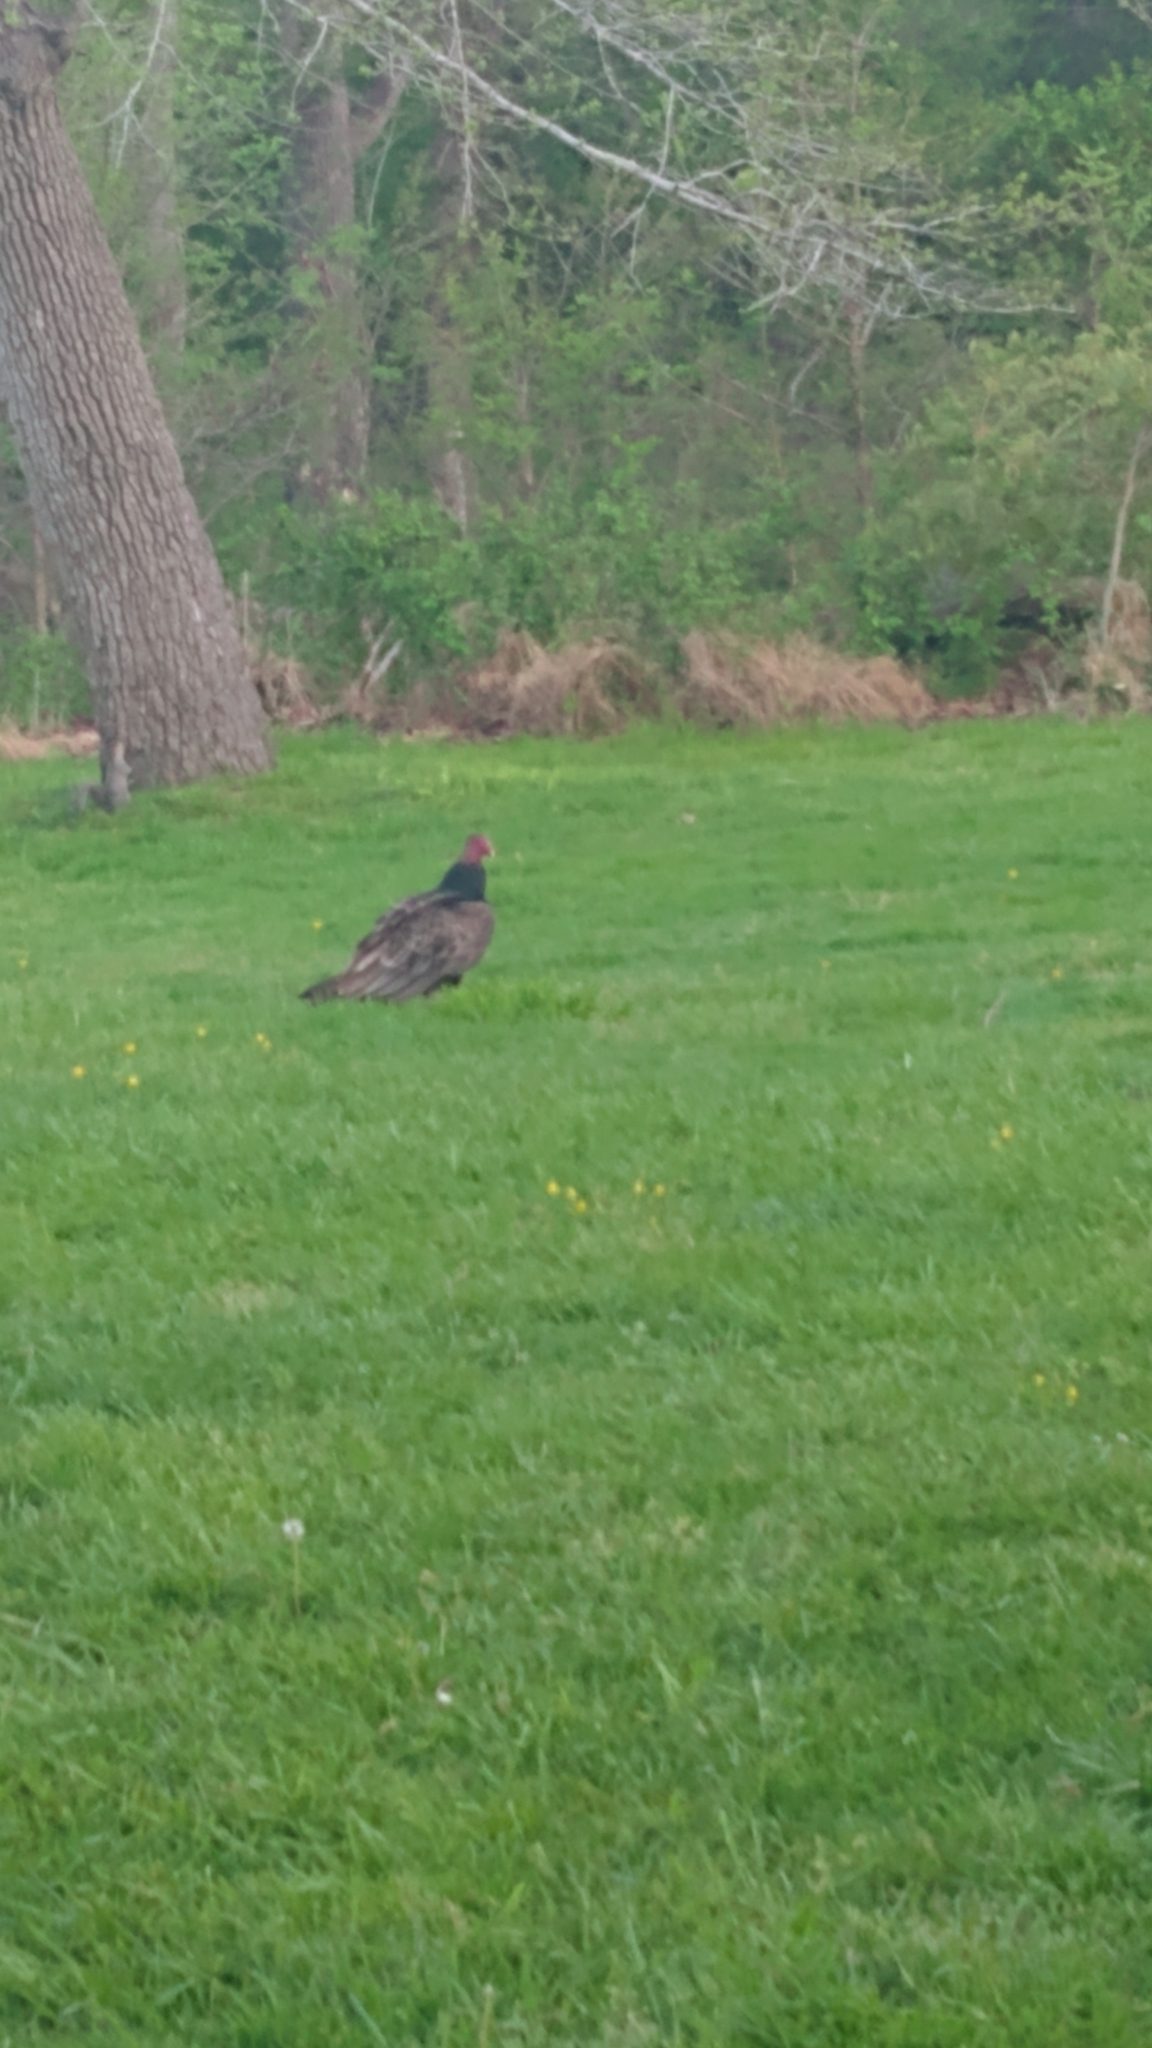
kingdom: Animalia
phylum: Chordata
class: Aves
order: Accipitriformes
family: Cathartidae
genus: Cathartes
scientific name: Cathartes aura
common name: Turkey vulture
